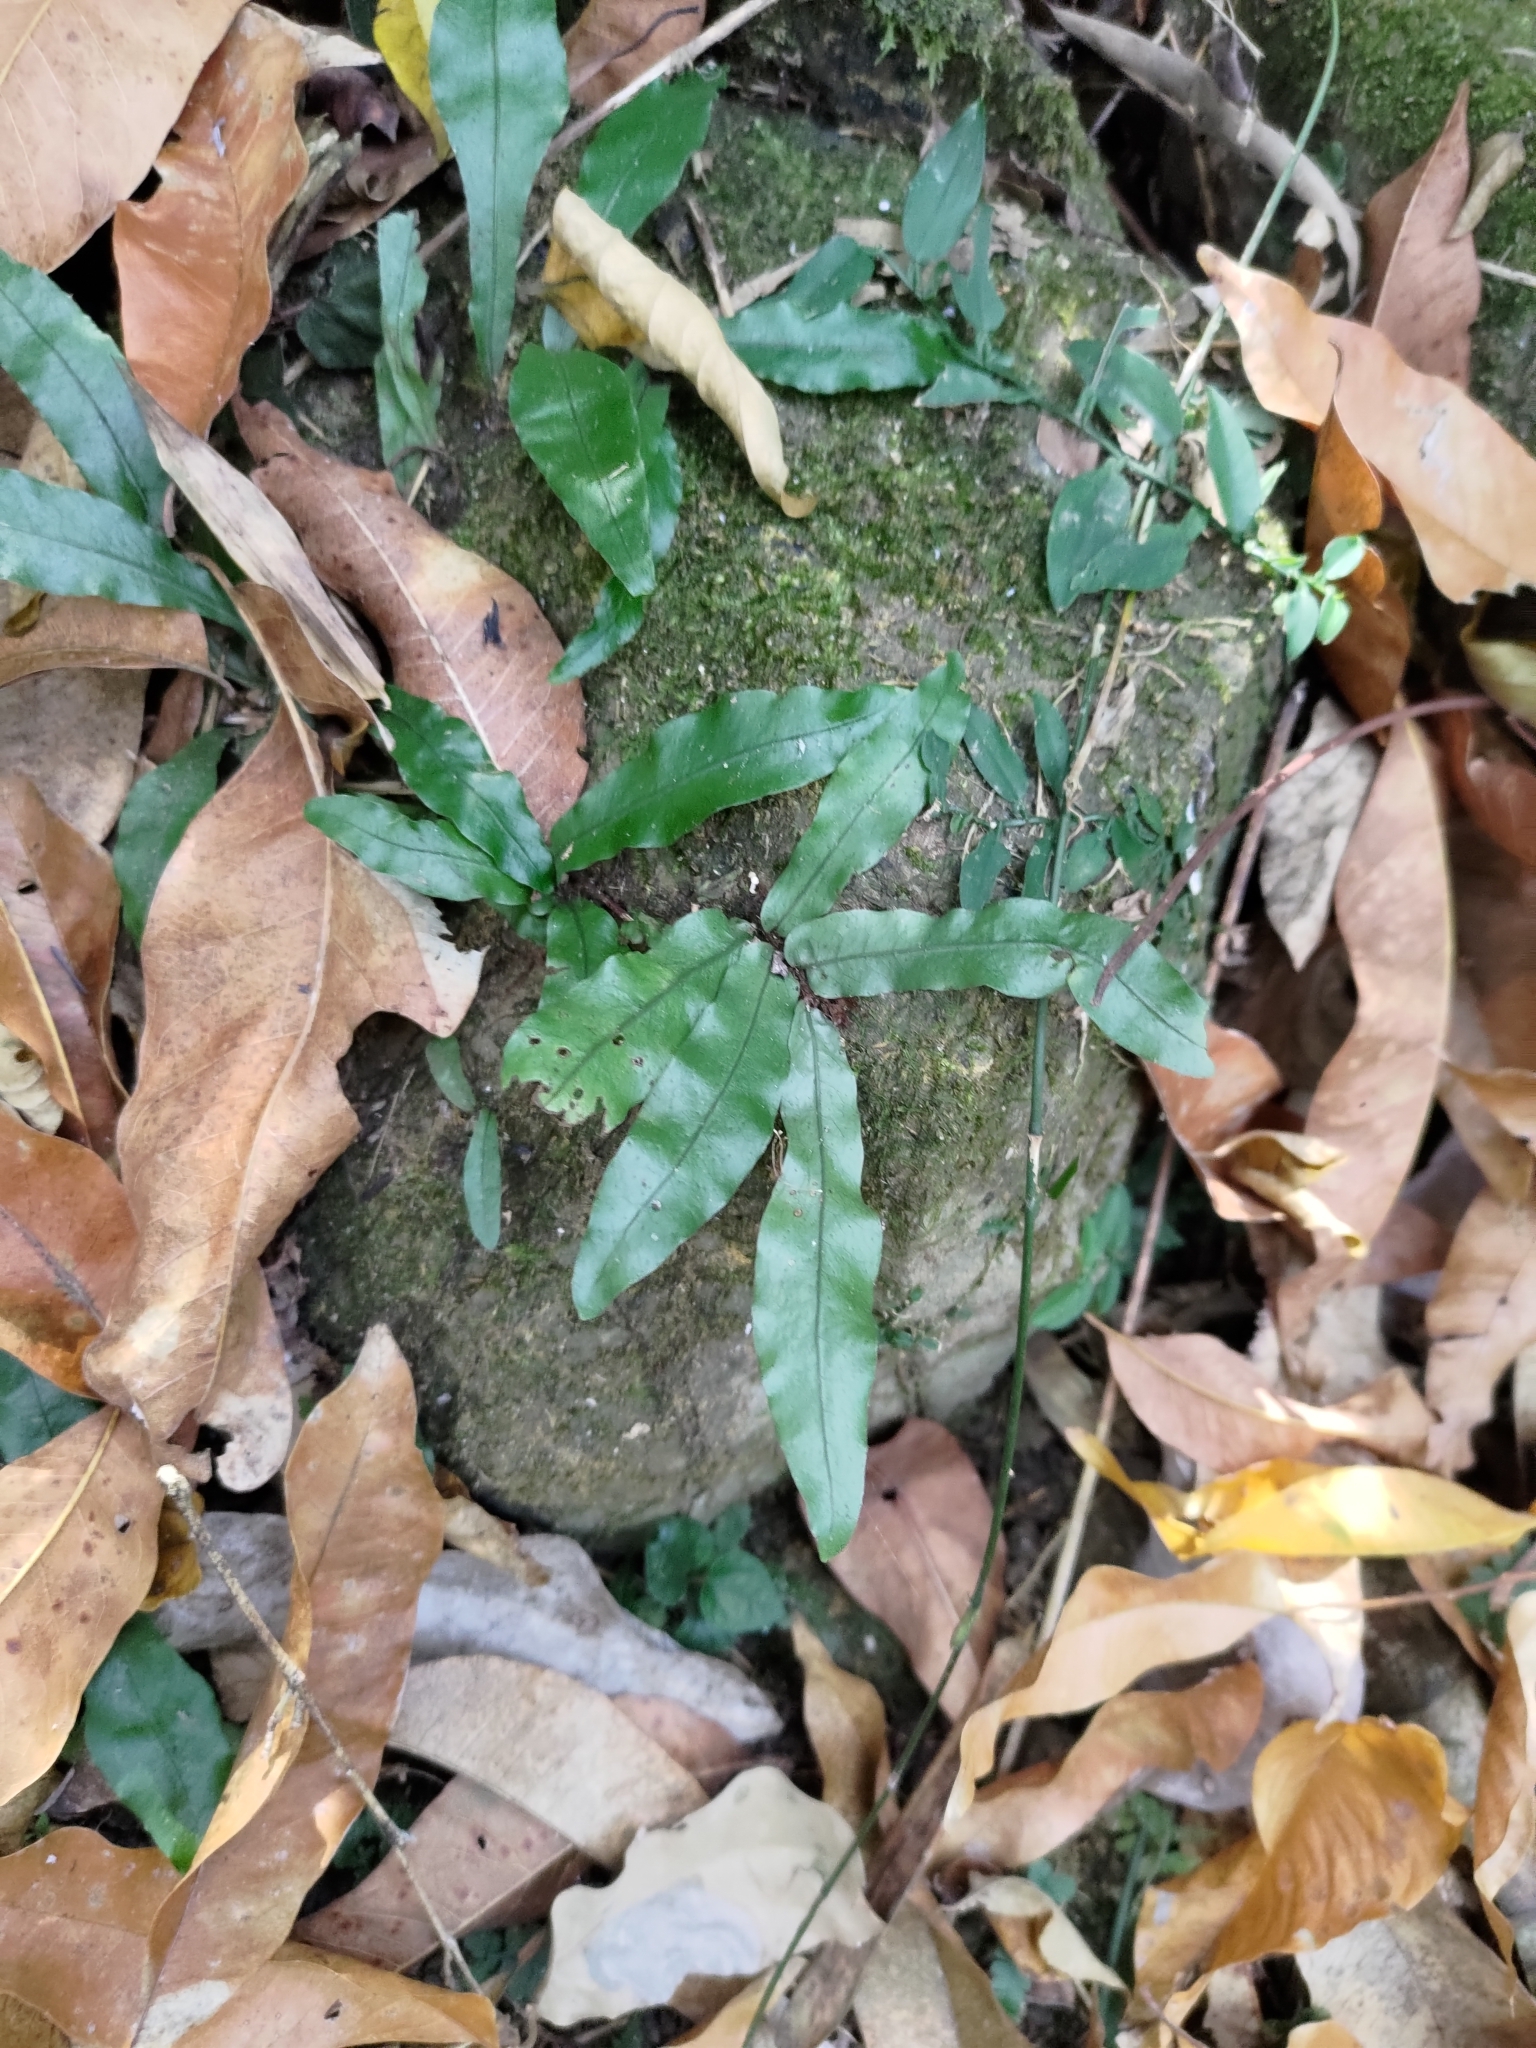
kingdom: Plantae
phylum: Tracheophyta
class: Polypodiopsida
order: Polypodiales
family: Polypodiaceae
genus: Leptochilus
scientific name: Leptochilus wrightii
